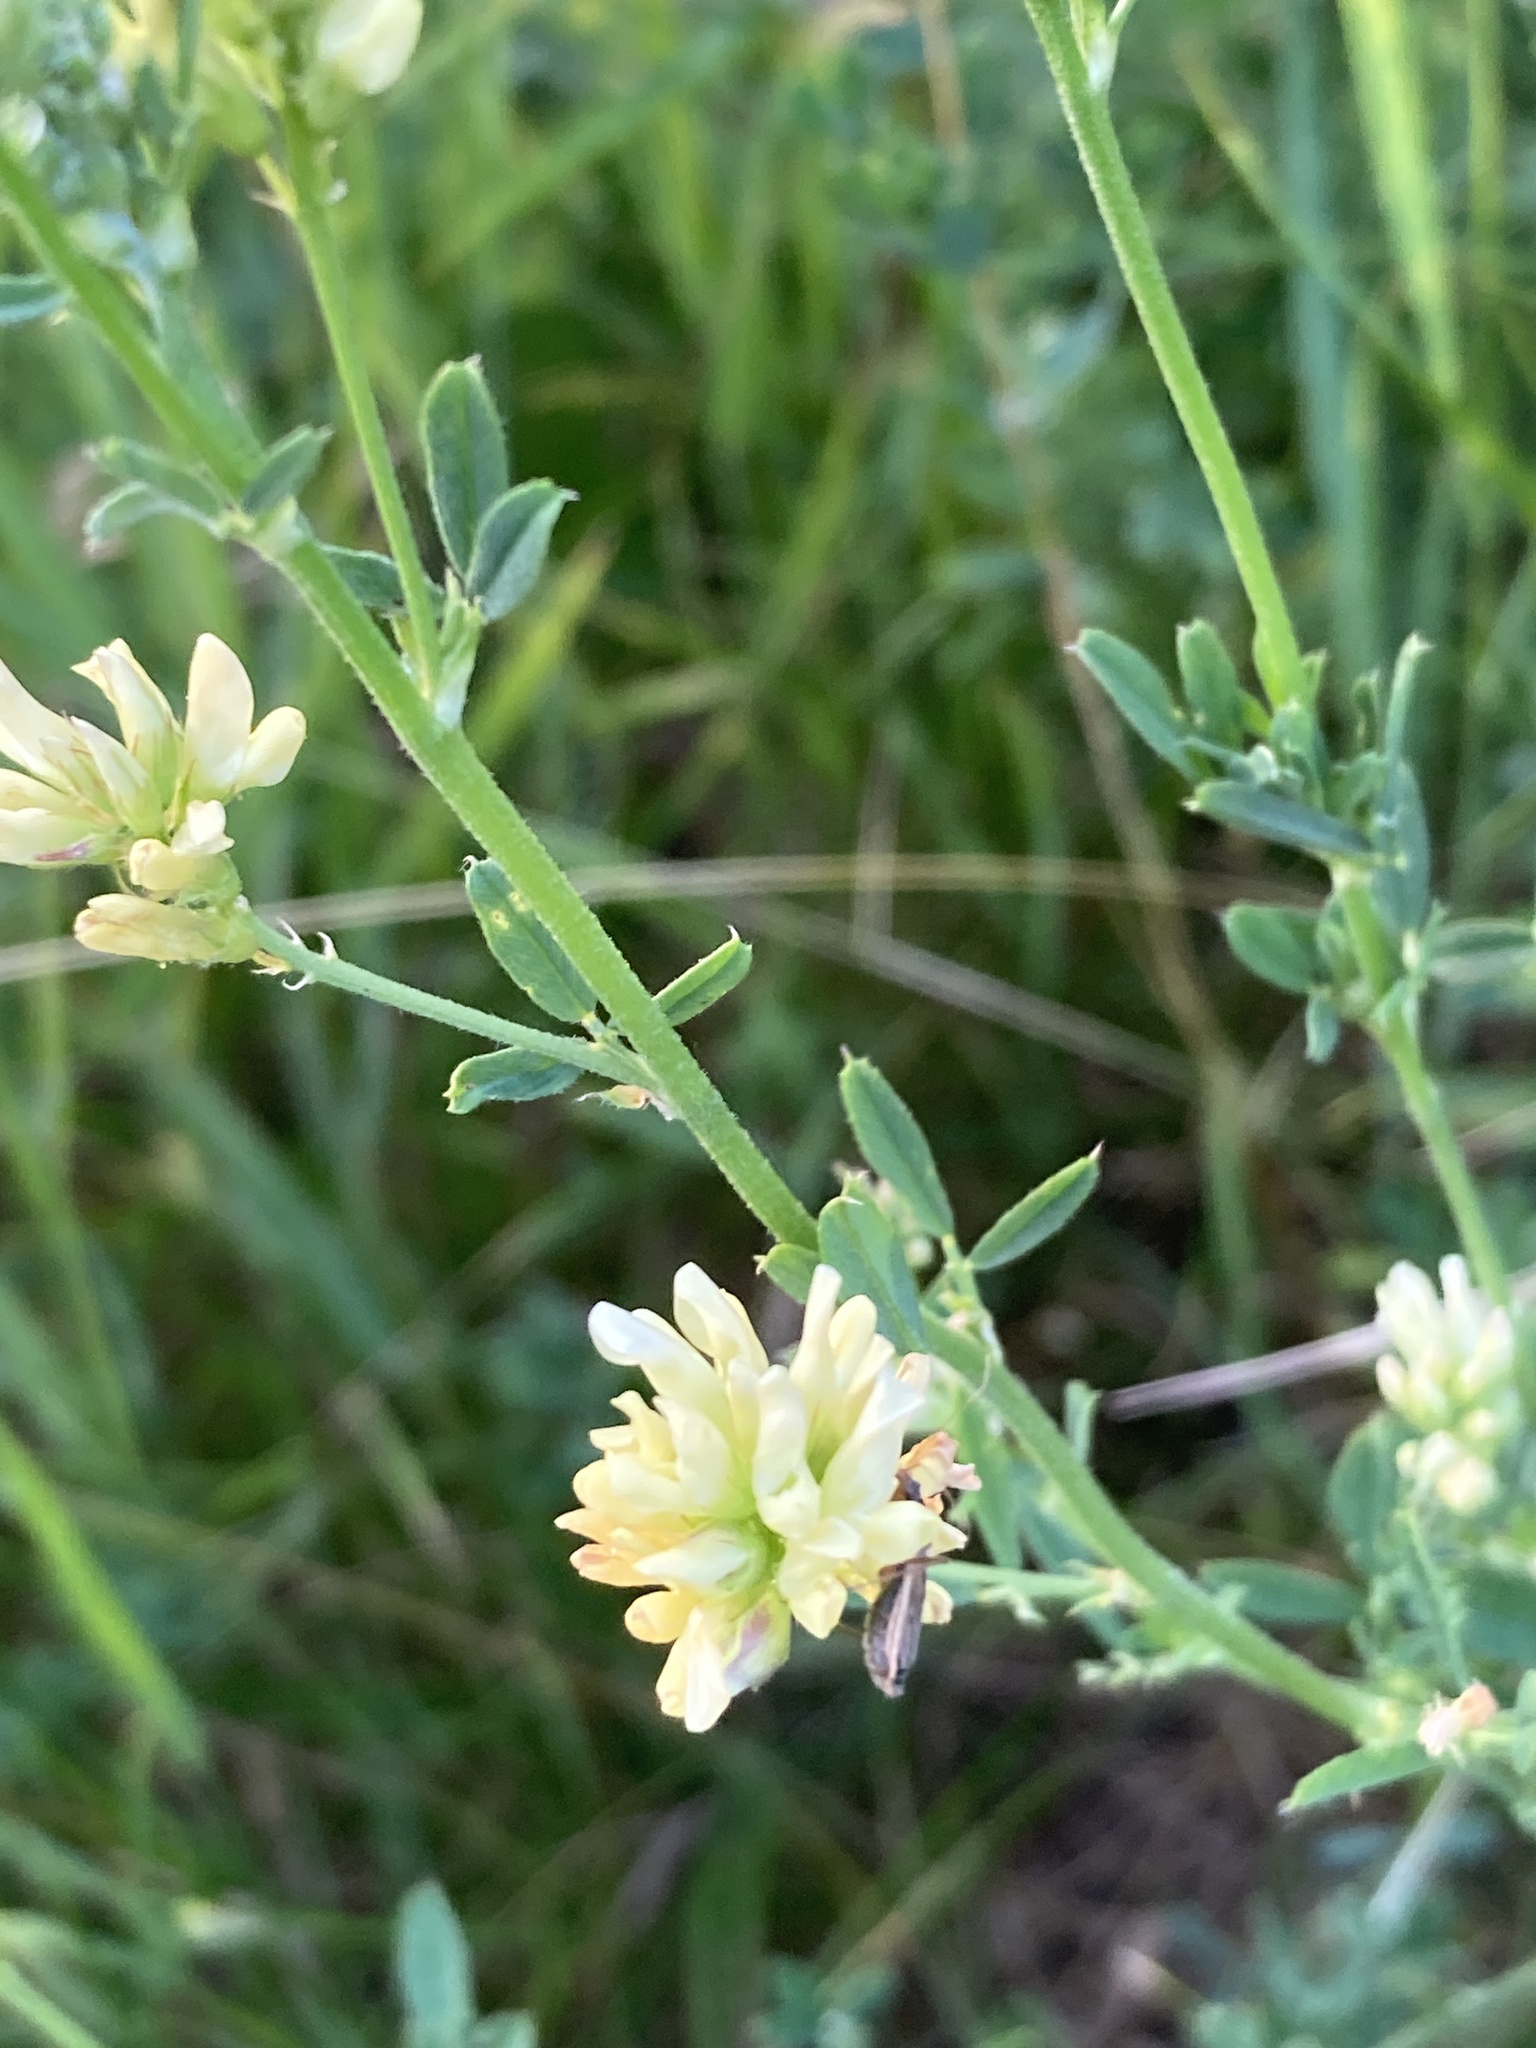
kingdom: Plantae
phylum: Tracheophyta
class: Magnoliopsida
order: Fabales
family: Fabaceae
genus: Medicago
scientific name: Medicago falcata
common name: Sickle medick
